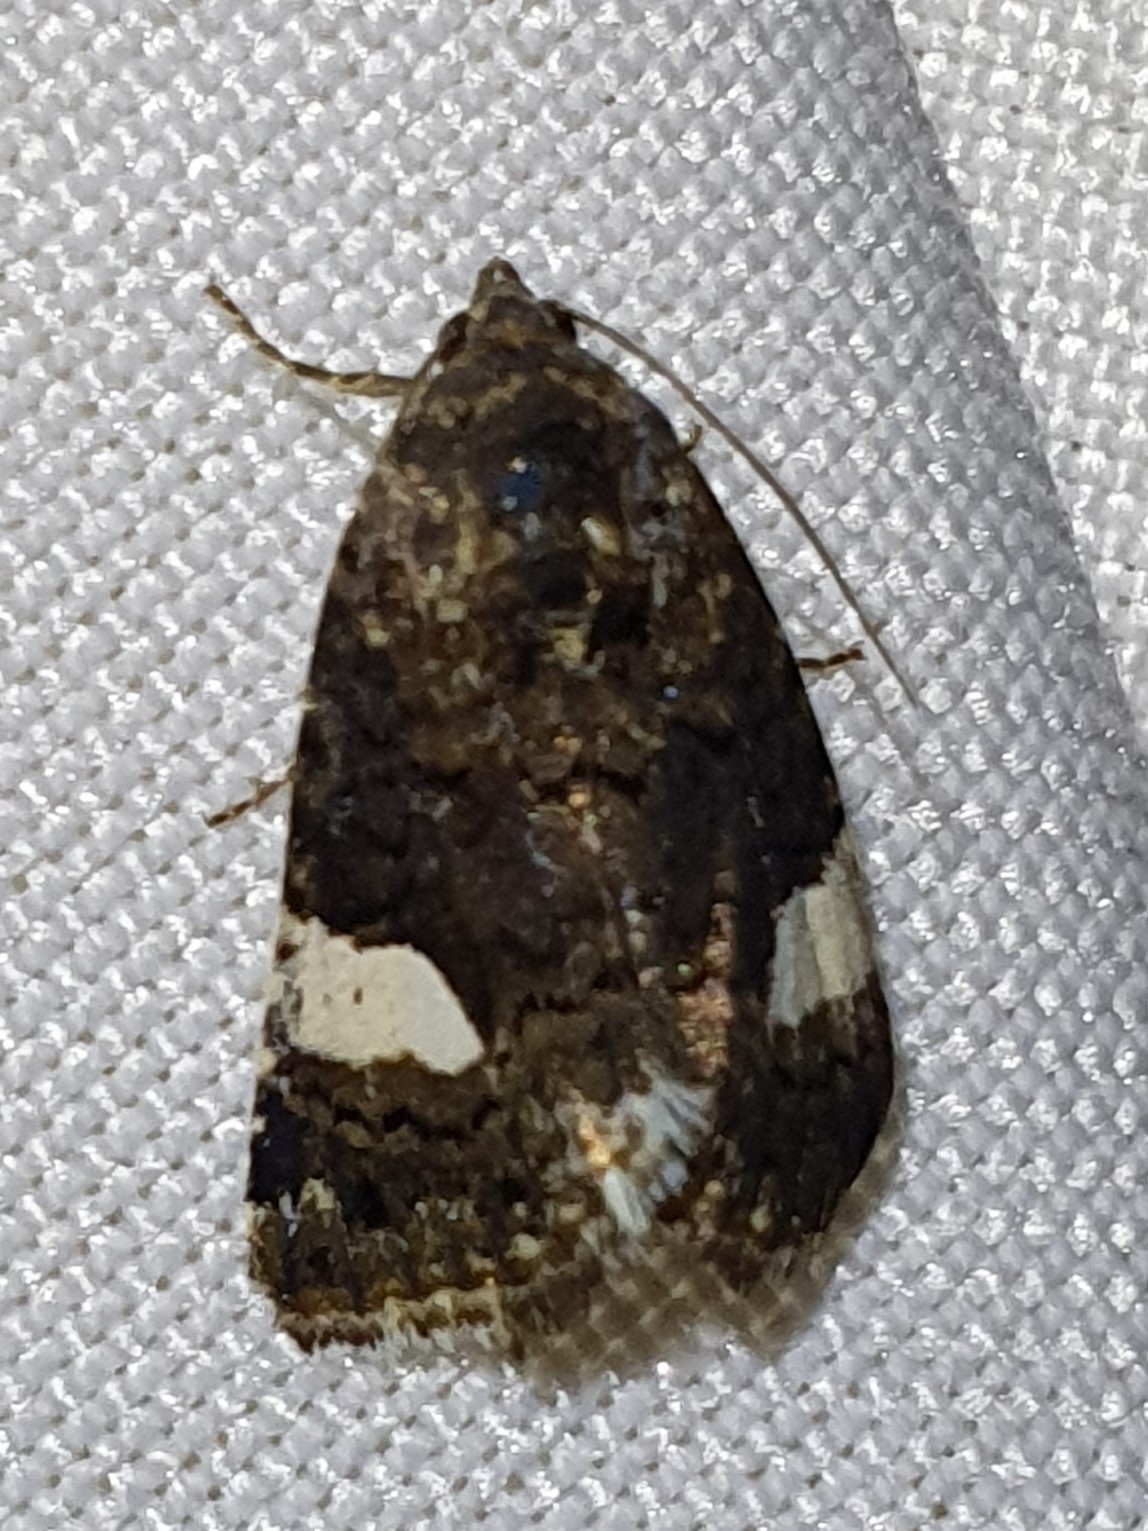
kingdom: Animalia
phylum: Arthropoda
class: Insecta
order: Lepidoptera
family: Erebidae
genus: Tyta
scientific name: Tyta luctuosa
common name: Four-spotted
